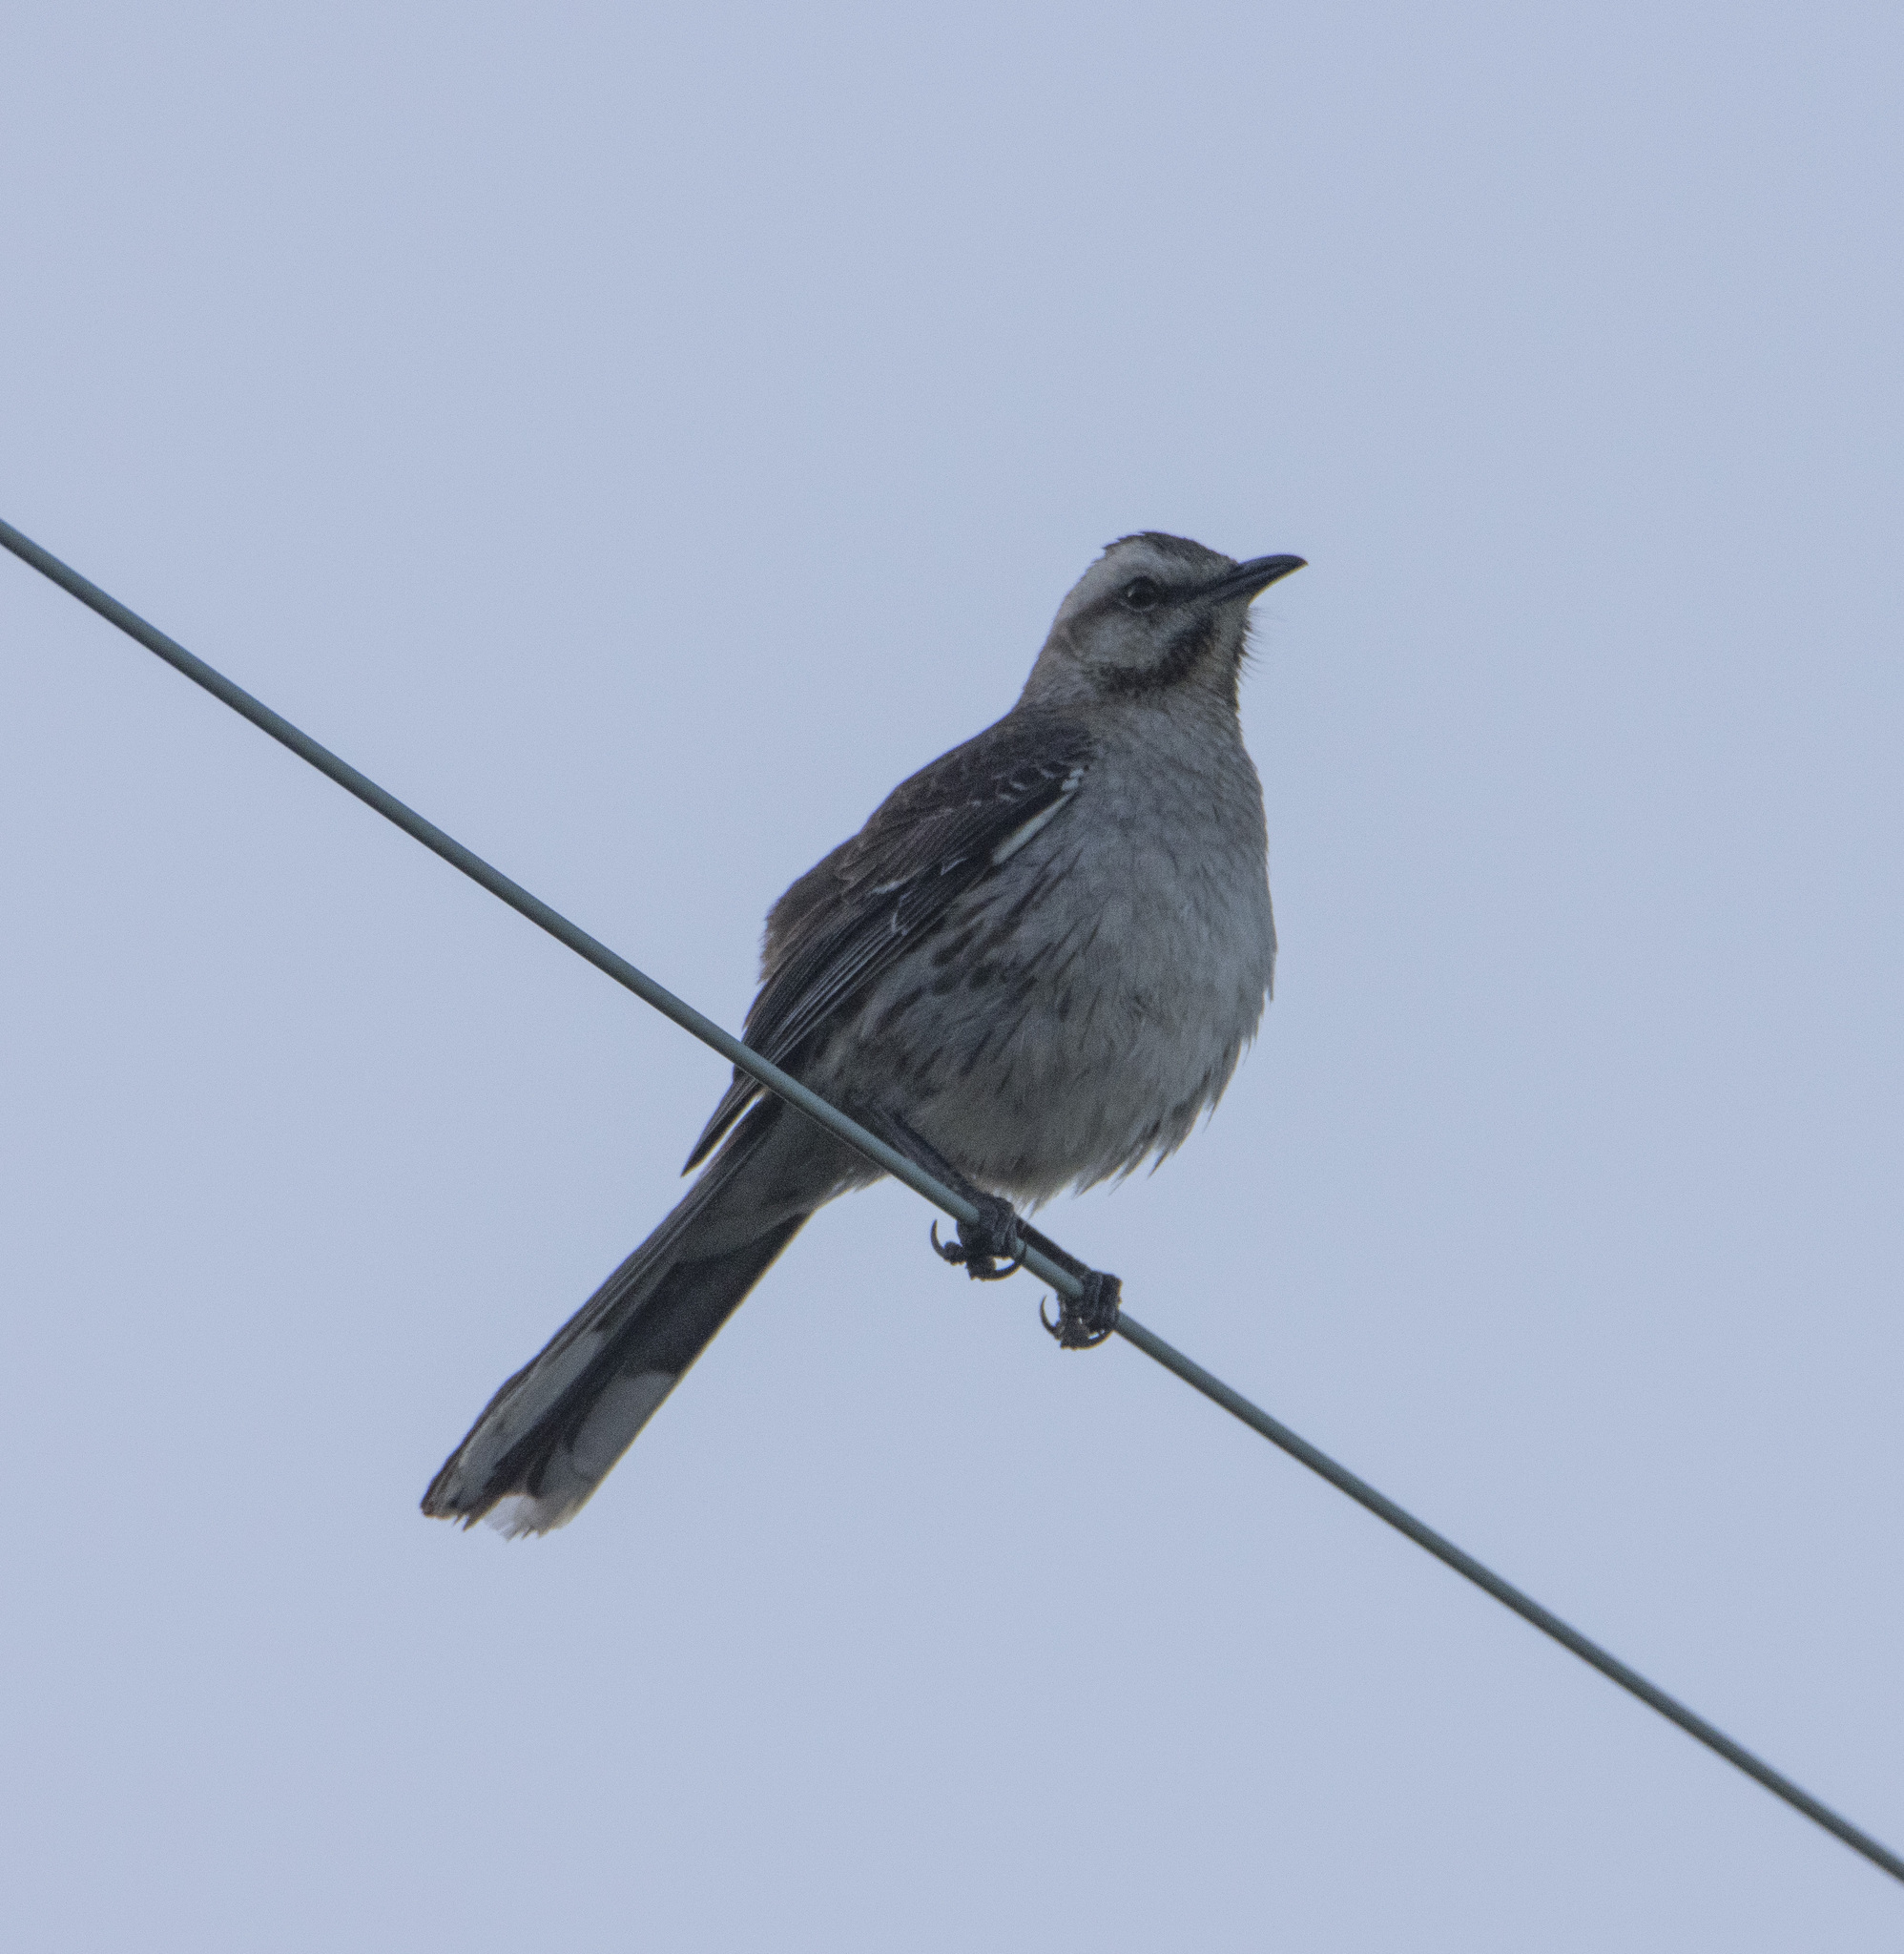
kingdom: Animalia
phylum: Chordata
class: Aves
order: Passeriformes
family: Mimidae
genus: Mimus
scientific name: Mimus thenca
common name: Chilean mockingbird
